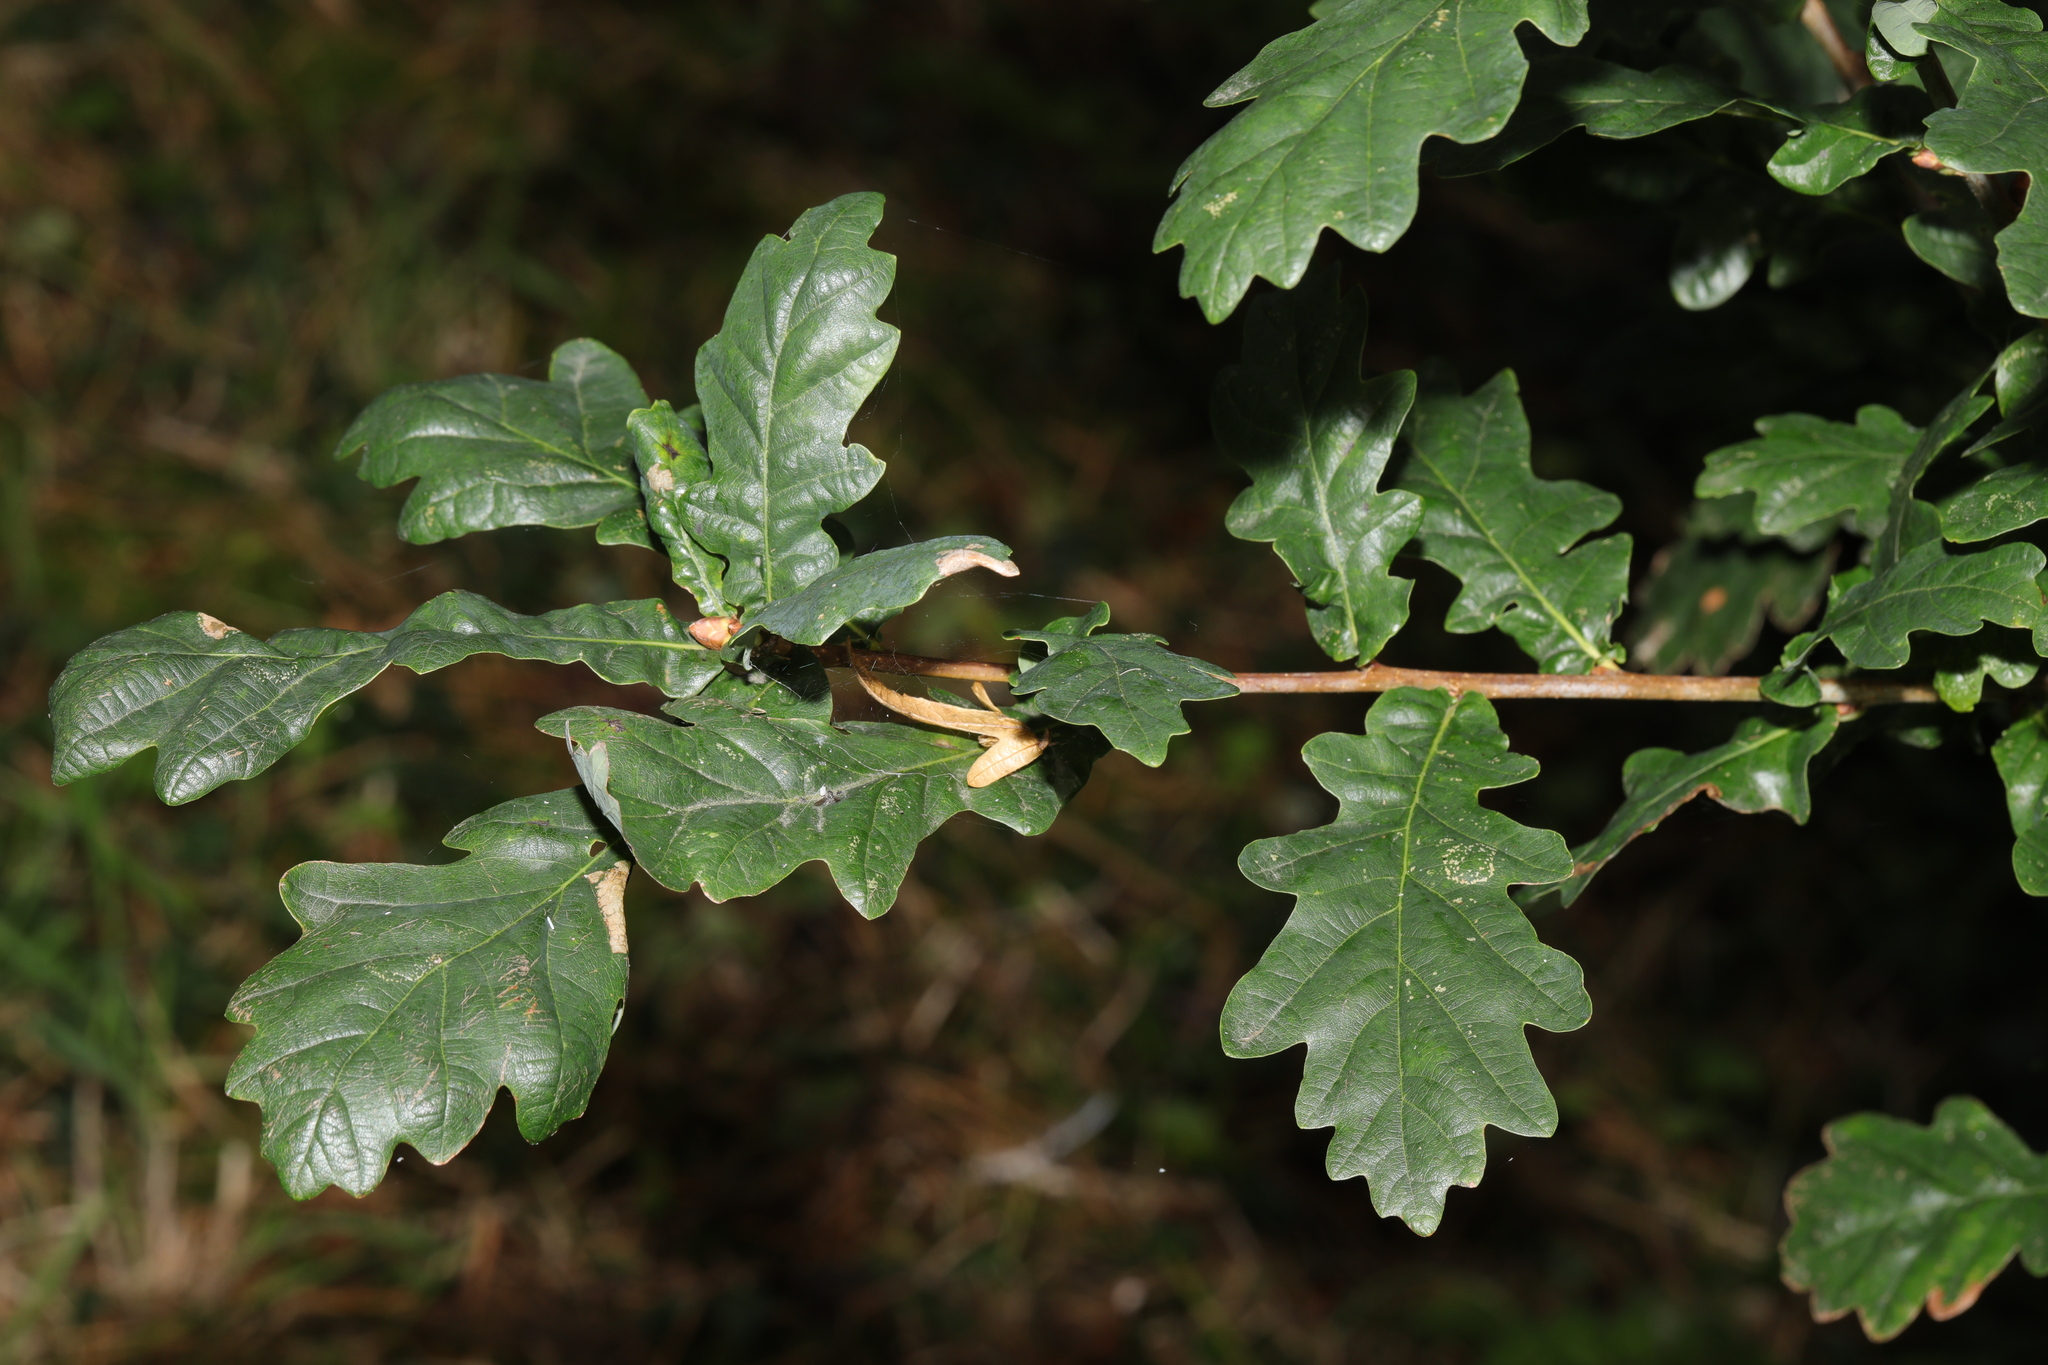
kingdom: Plantae
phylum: Tracheophyta
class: Magnoliopsida
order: Fagales
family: Fagaceae
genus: Quercus
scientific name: Quercus robur
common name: Pedunculate oak
